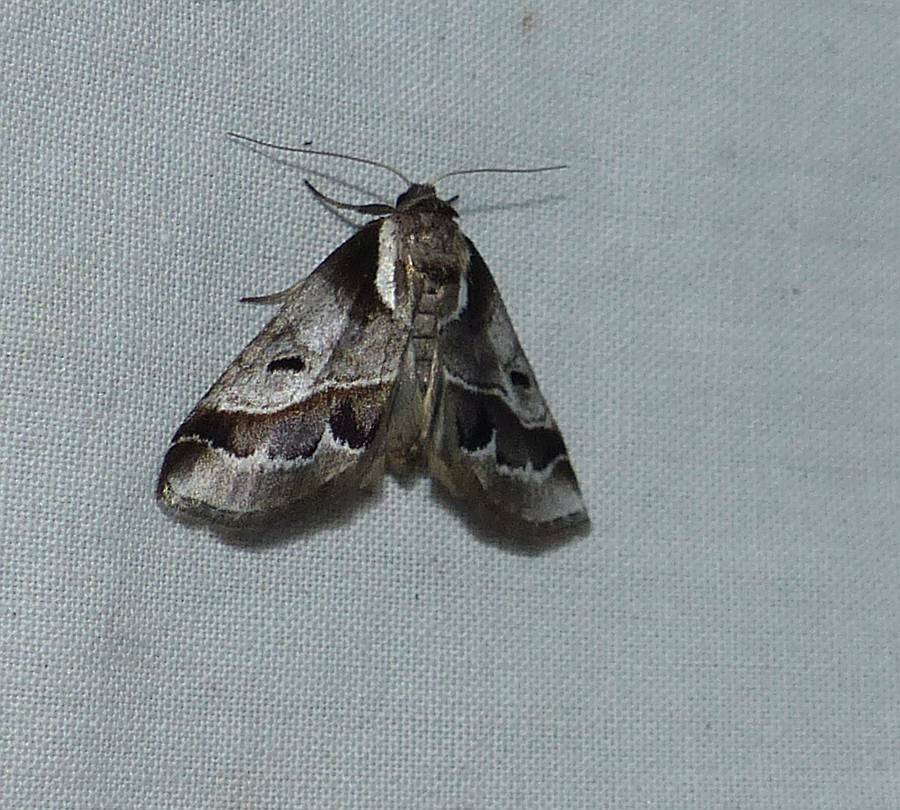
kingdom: Animalia
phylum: Arthropoda
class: Insecta
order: Lepidoptera
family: Nolidae
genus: Baileya
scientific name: Baileya doubledayi
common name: Doubleday's baileya moth
